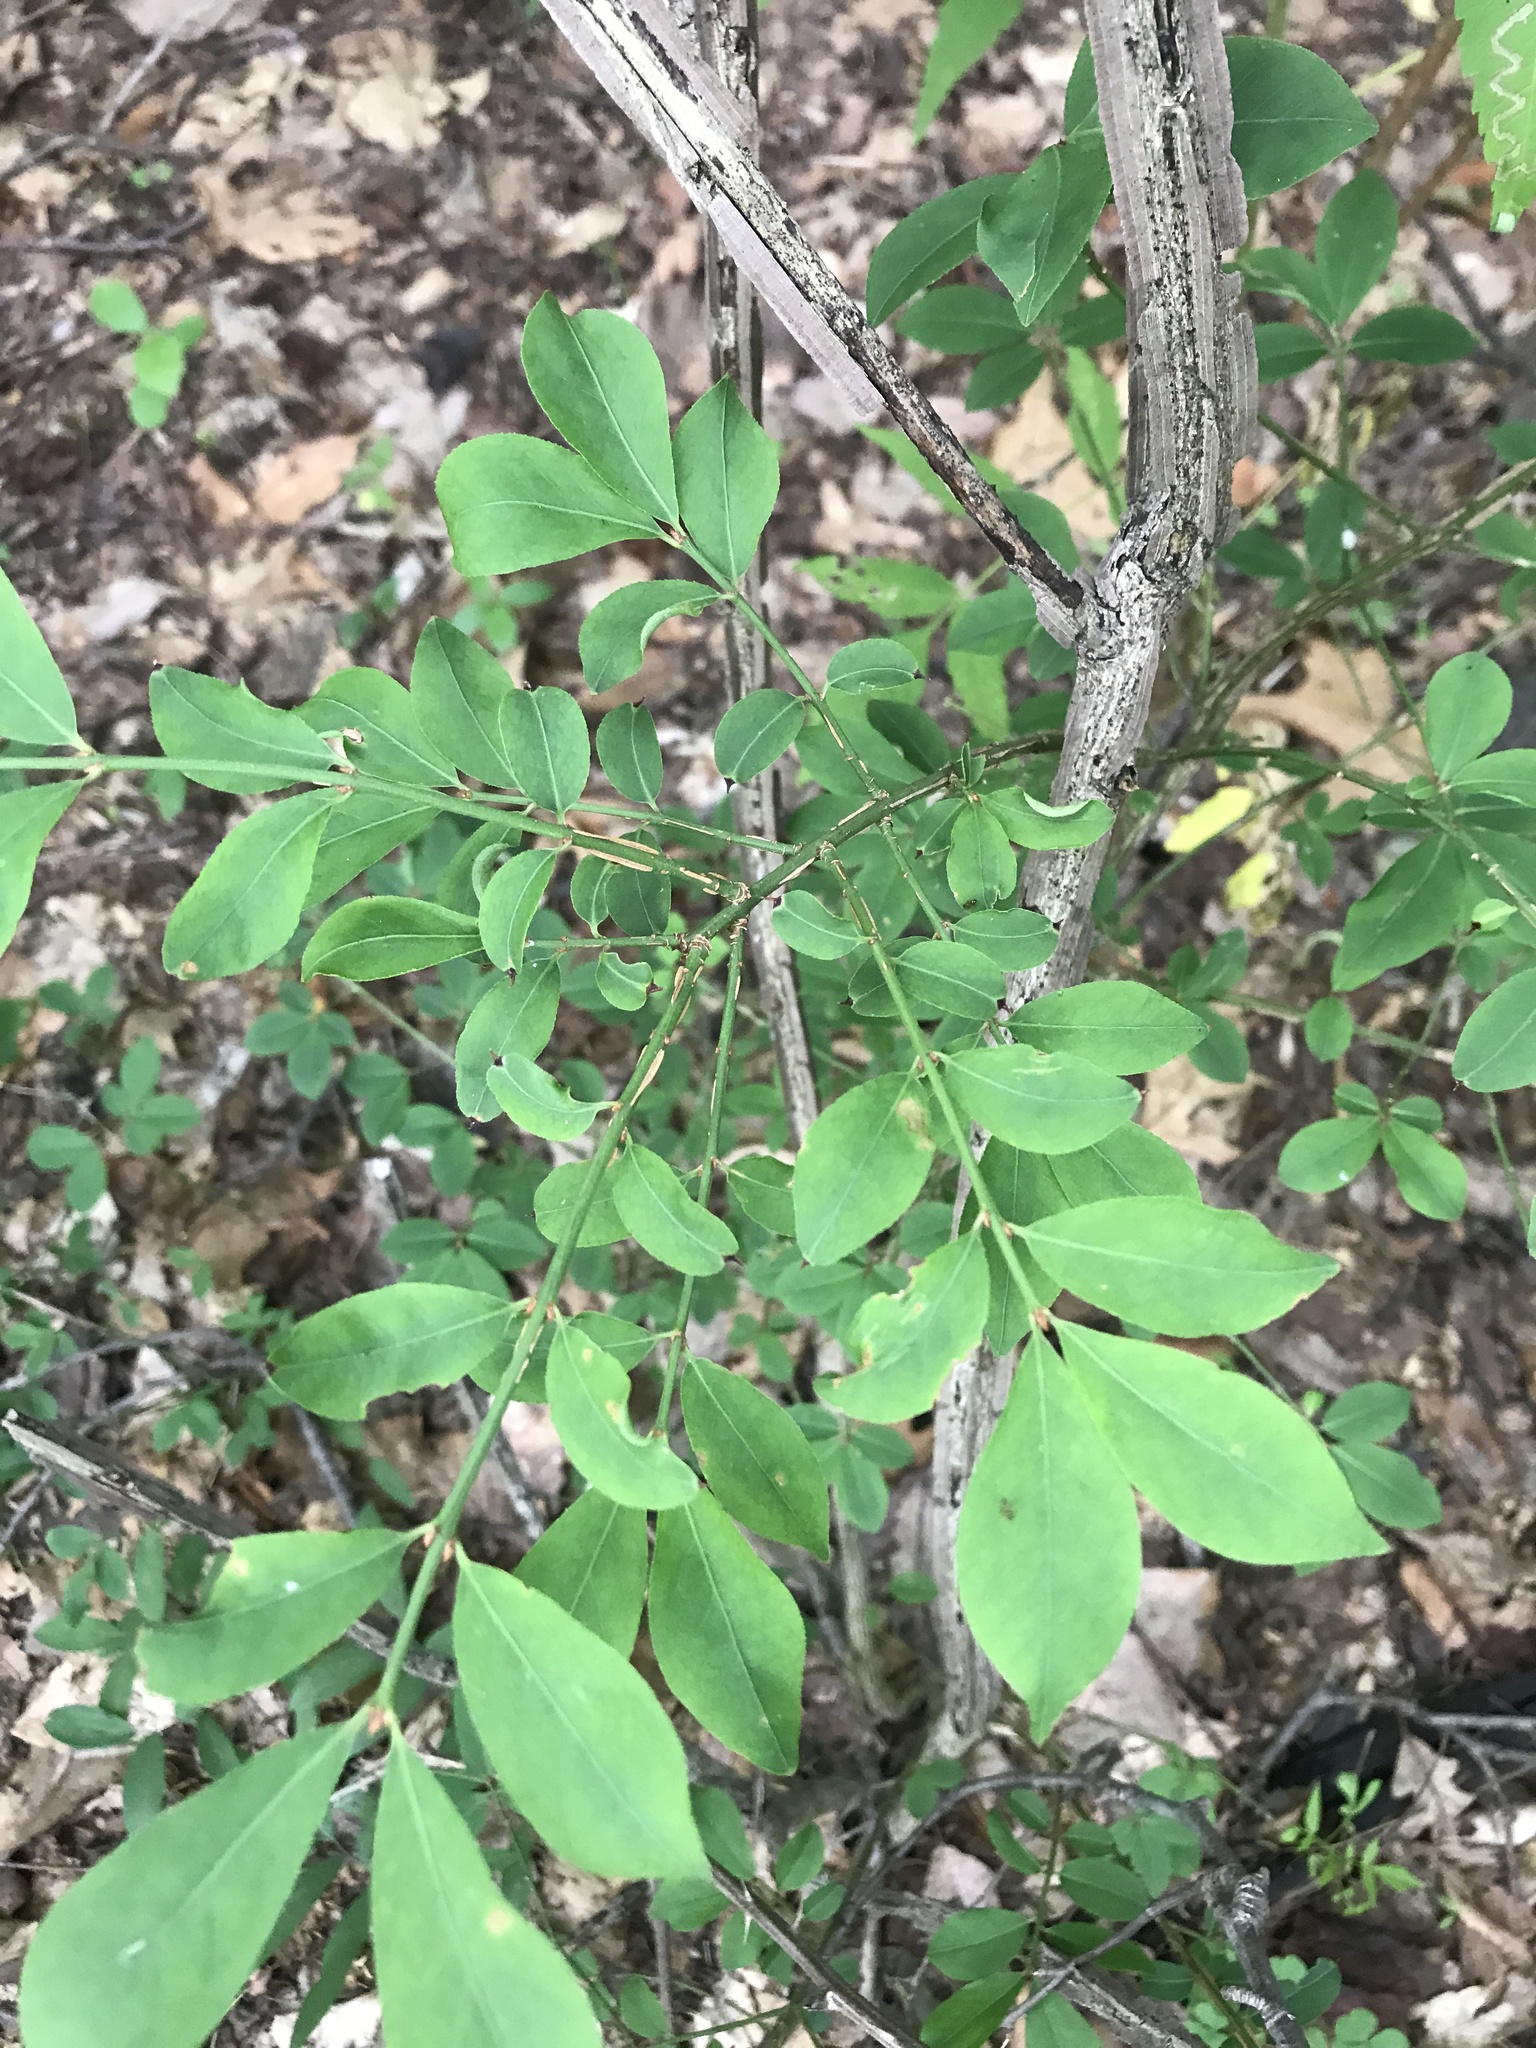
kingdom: Plantae
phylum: Tracheophyta
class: Magnoliopsida
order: Celastrales
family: Celastraceae
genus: Euonymus
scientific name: Euonymus alatus
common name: Winged euonymus
